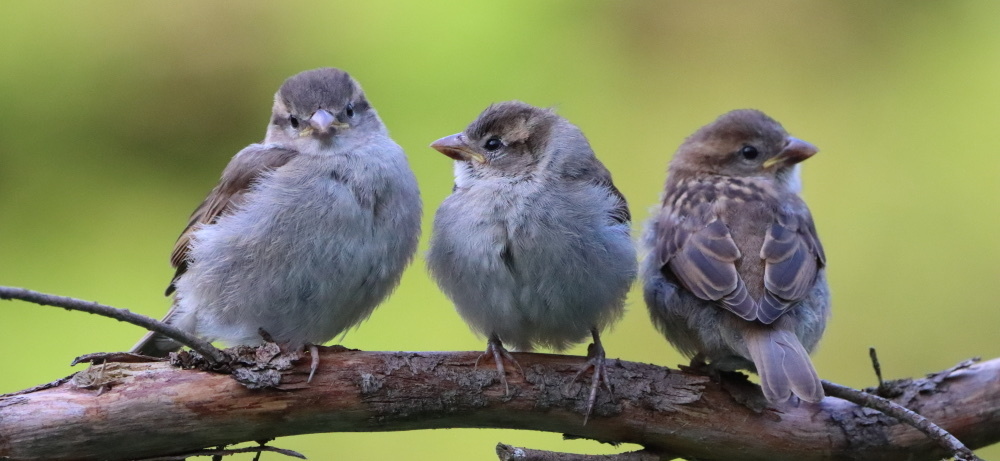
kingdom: Animalia
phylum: Chordata
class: Aves
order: Passeriformes
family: Passeridae
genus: Passer
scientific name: Passer domesticus
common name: House sparrow
